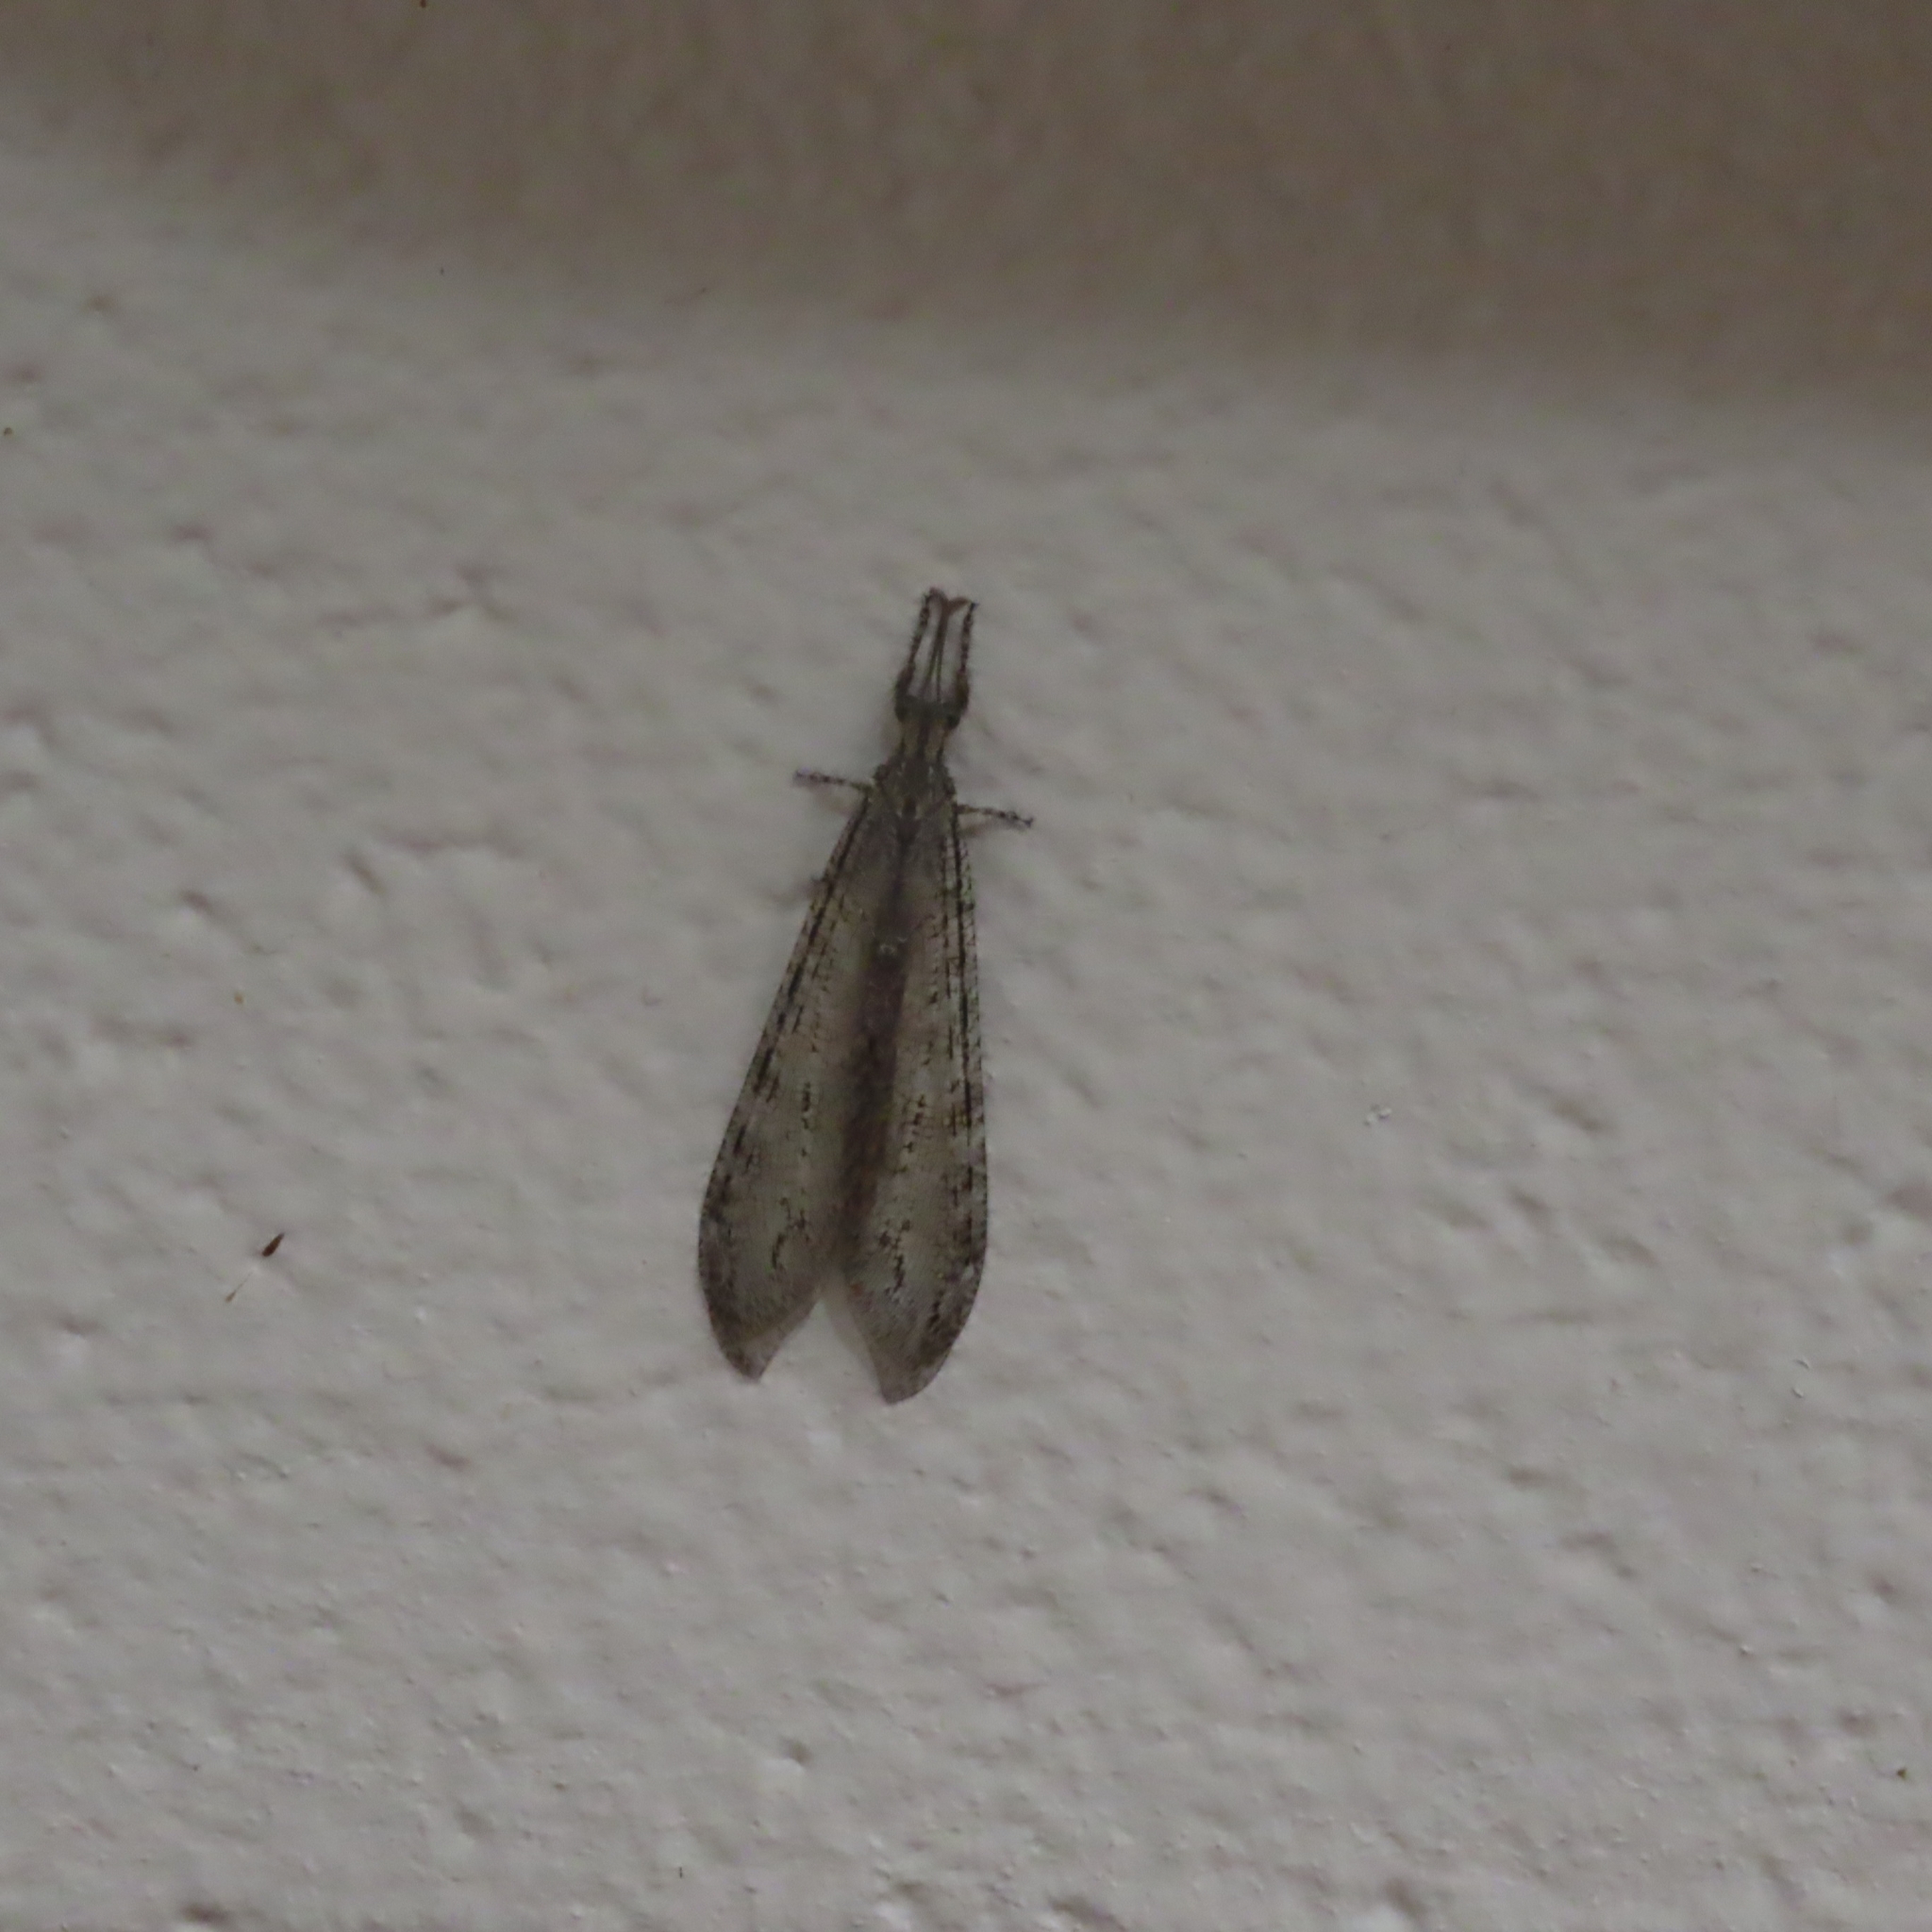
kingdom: Animalia
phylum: Arthropoda
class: Insecta
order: Neuroptera
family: Myrmeleontidae
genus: Vella
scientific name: Vella fallax
